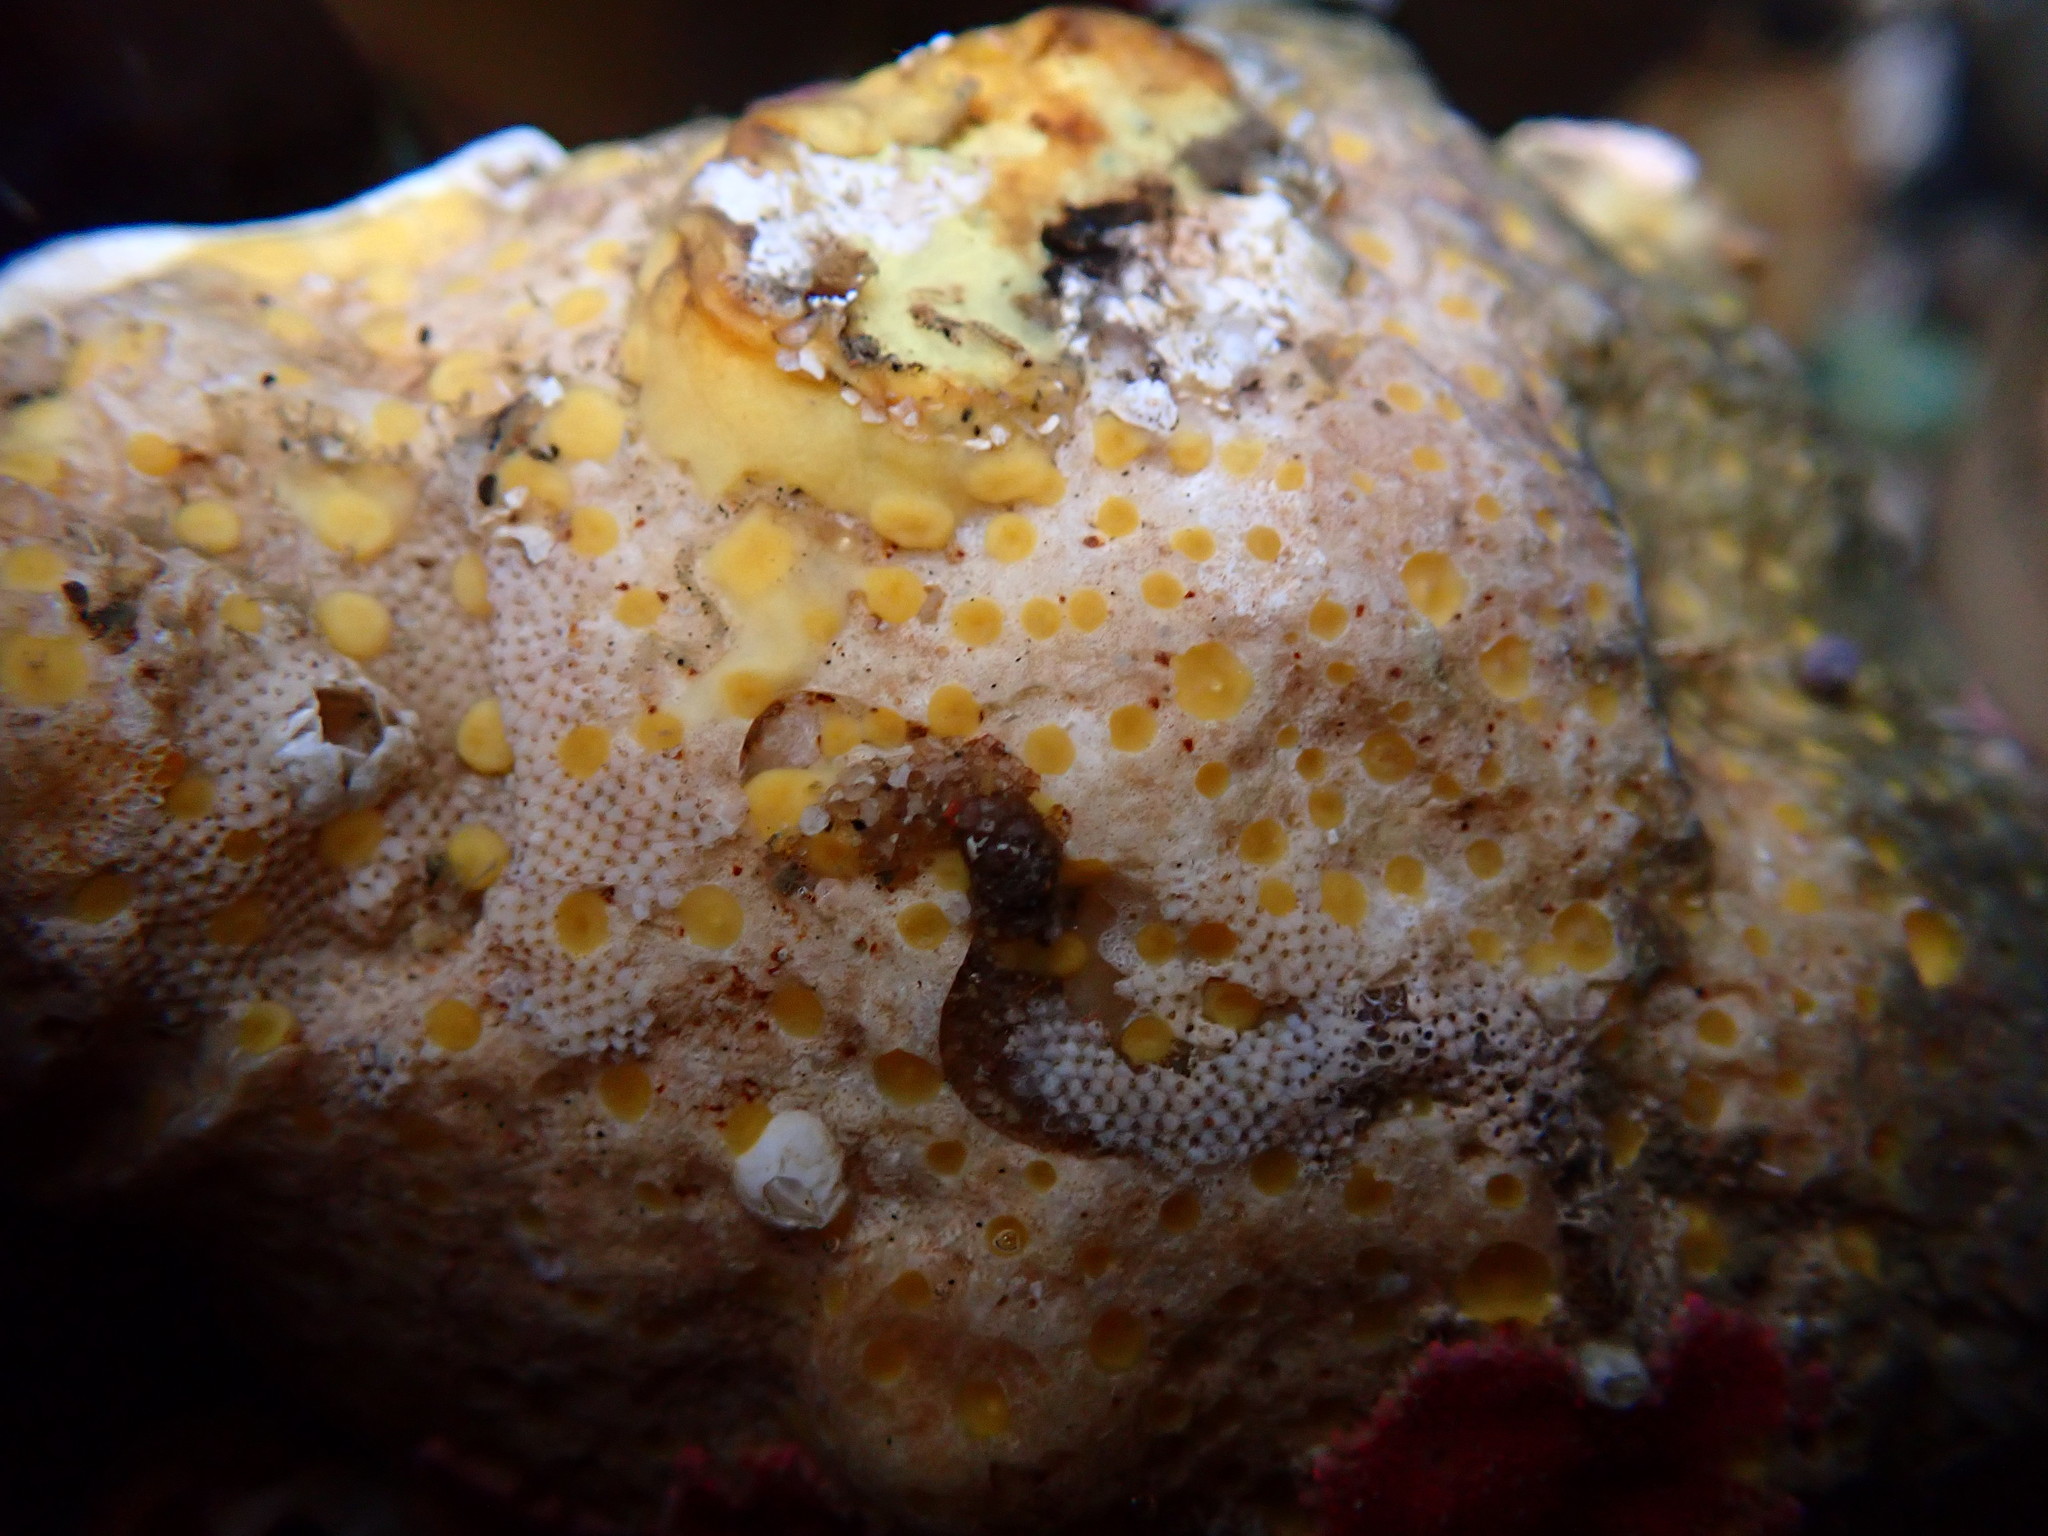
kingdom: Animalia
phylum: Porifera
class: Demospongiae
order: Clionaida
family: Clionaidae
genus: Cliona
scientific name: Cliona californiana
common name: California boring horny sponge
